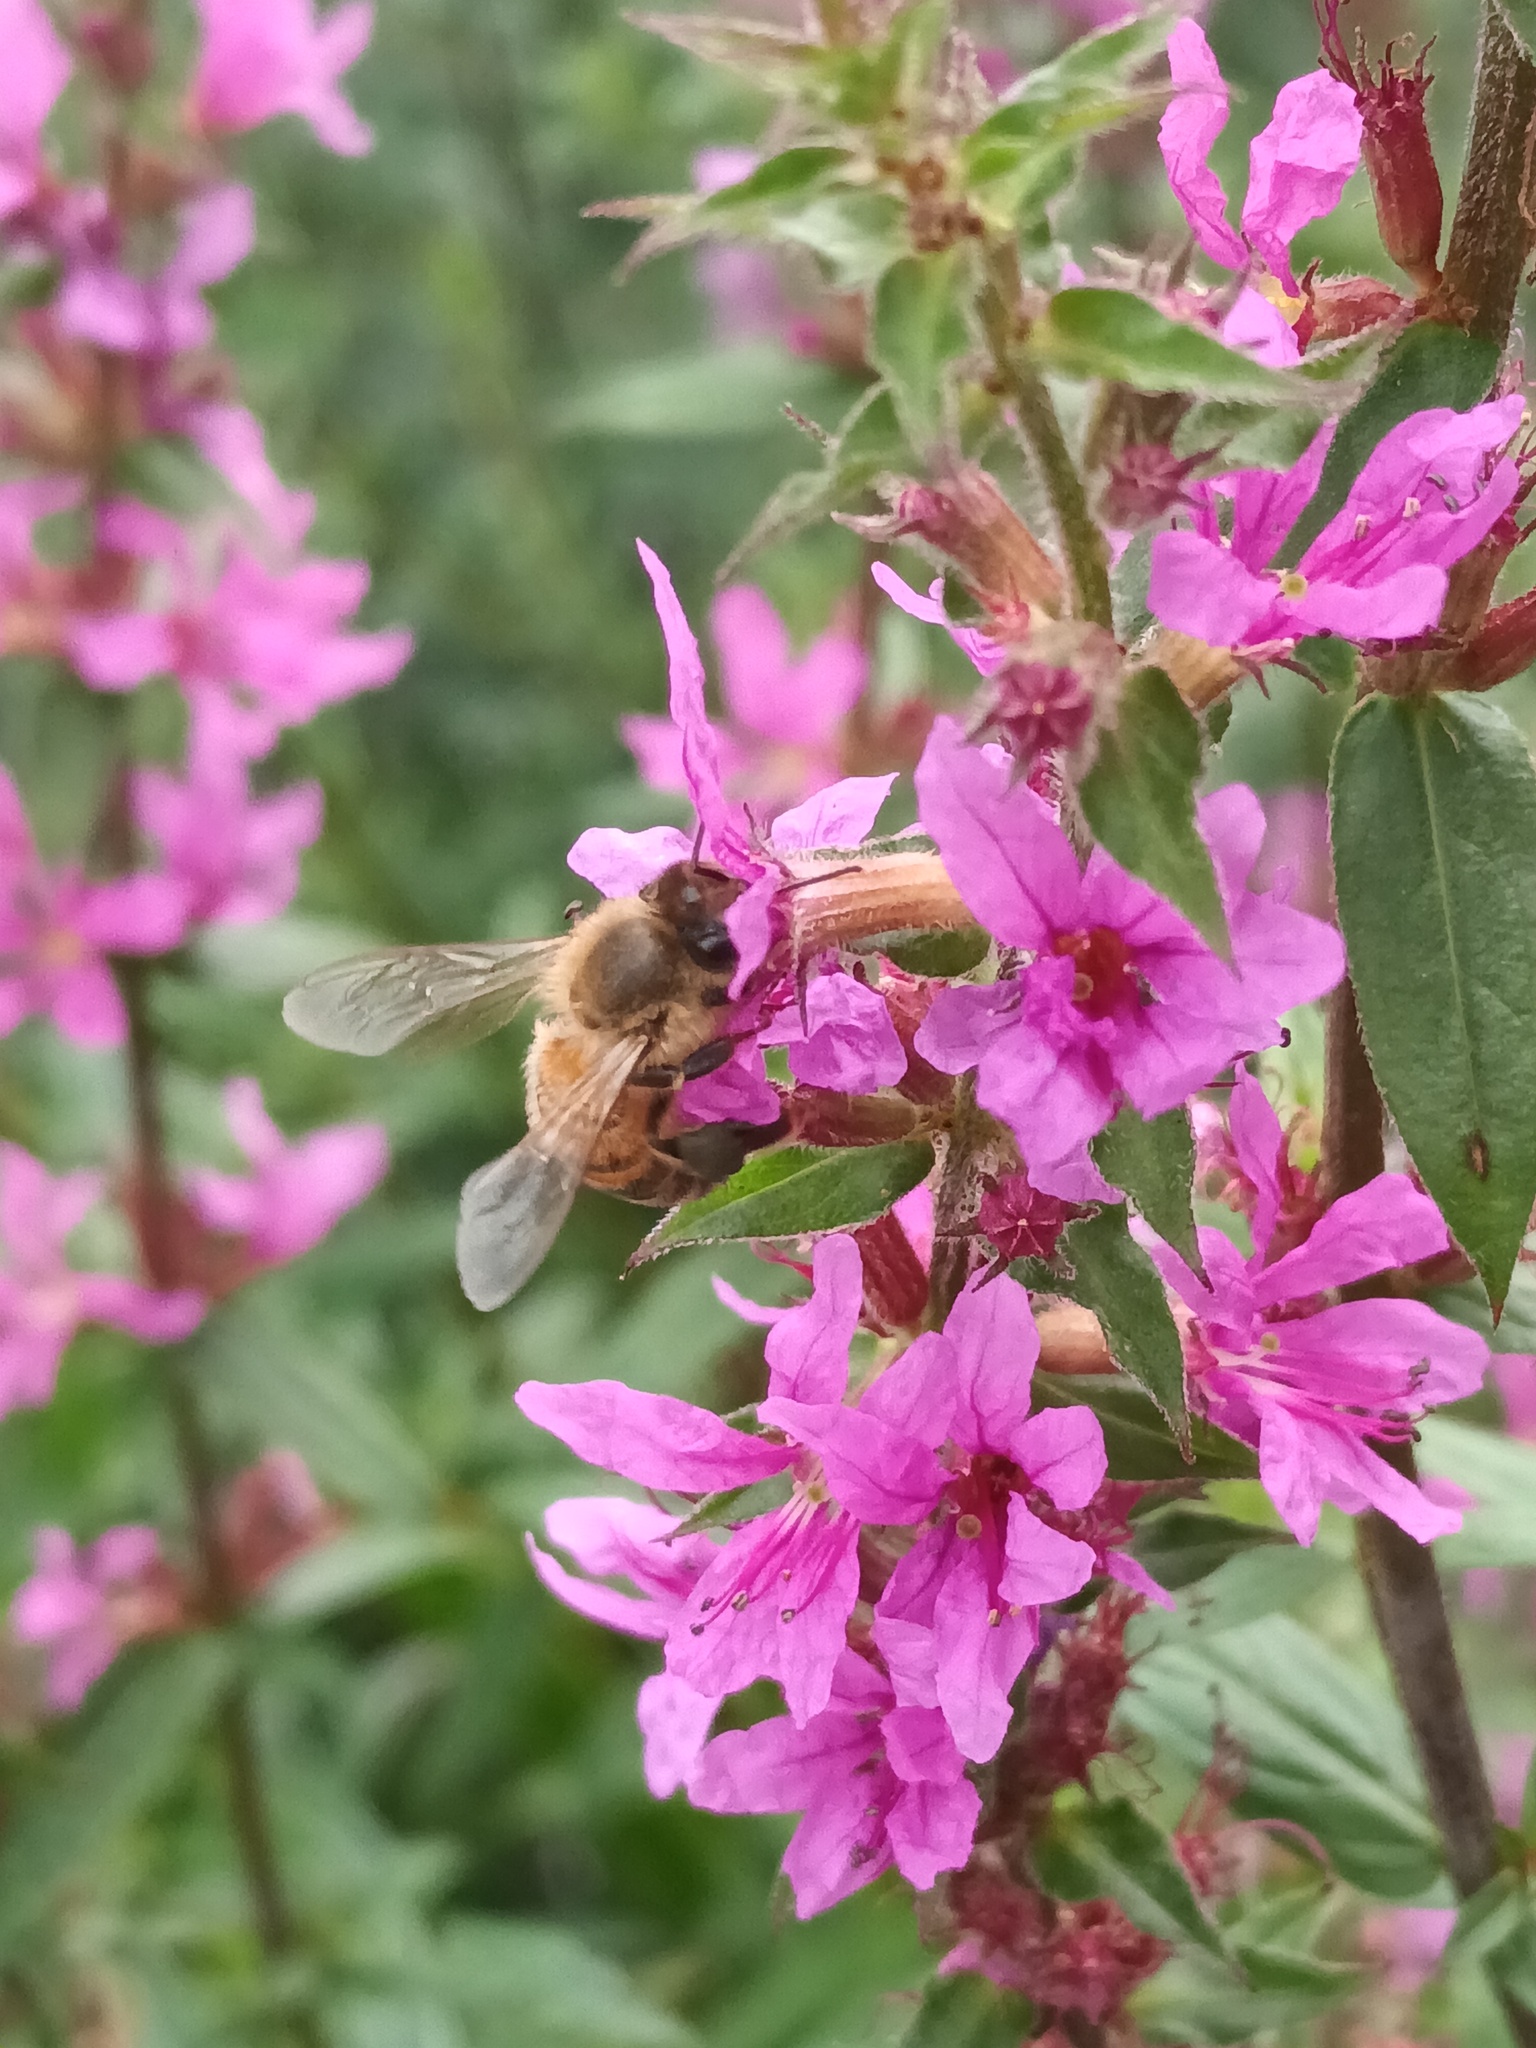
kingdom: Animalia
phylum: Arthropoda
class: Insecta
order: Hymenoptera
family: Apidae
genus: Apis
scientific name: Apis mellifera
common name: Honey bee
